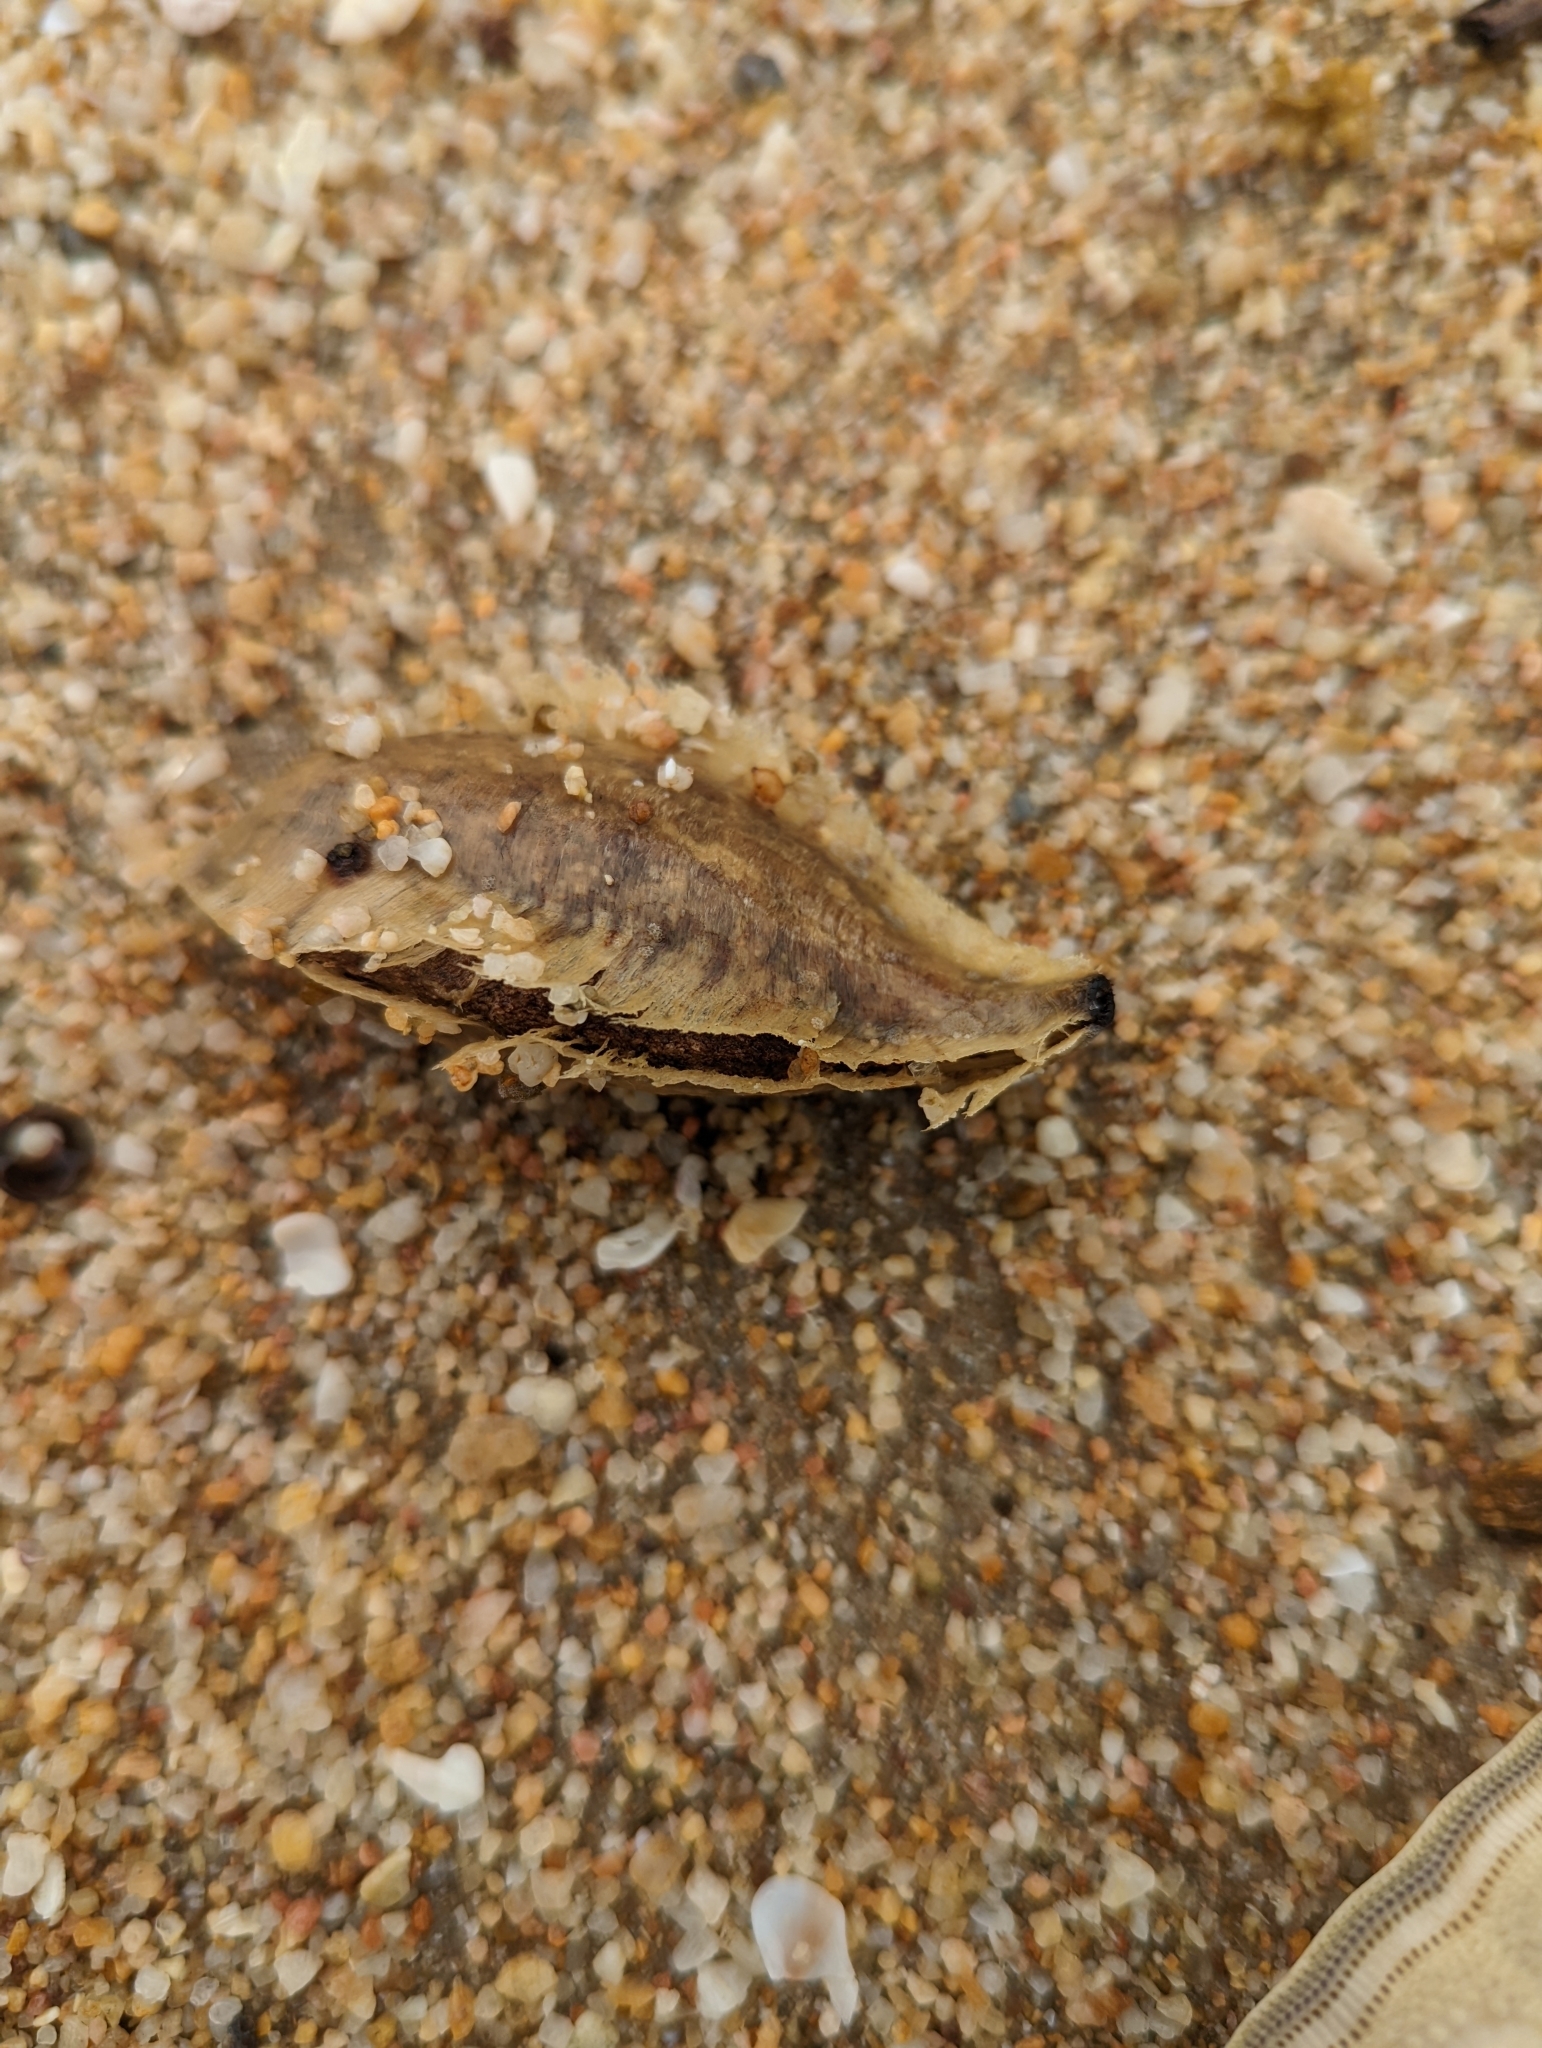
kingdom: Plantae
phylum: Tracheophyta
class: Magnoliopsida
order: Myrtales
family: Combretaceae
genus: Terminalia
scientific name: Terminalia catappa
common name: Tropical almond
